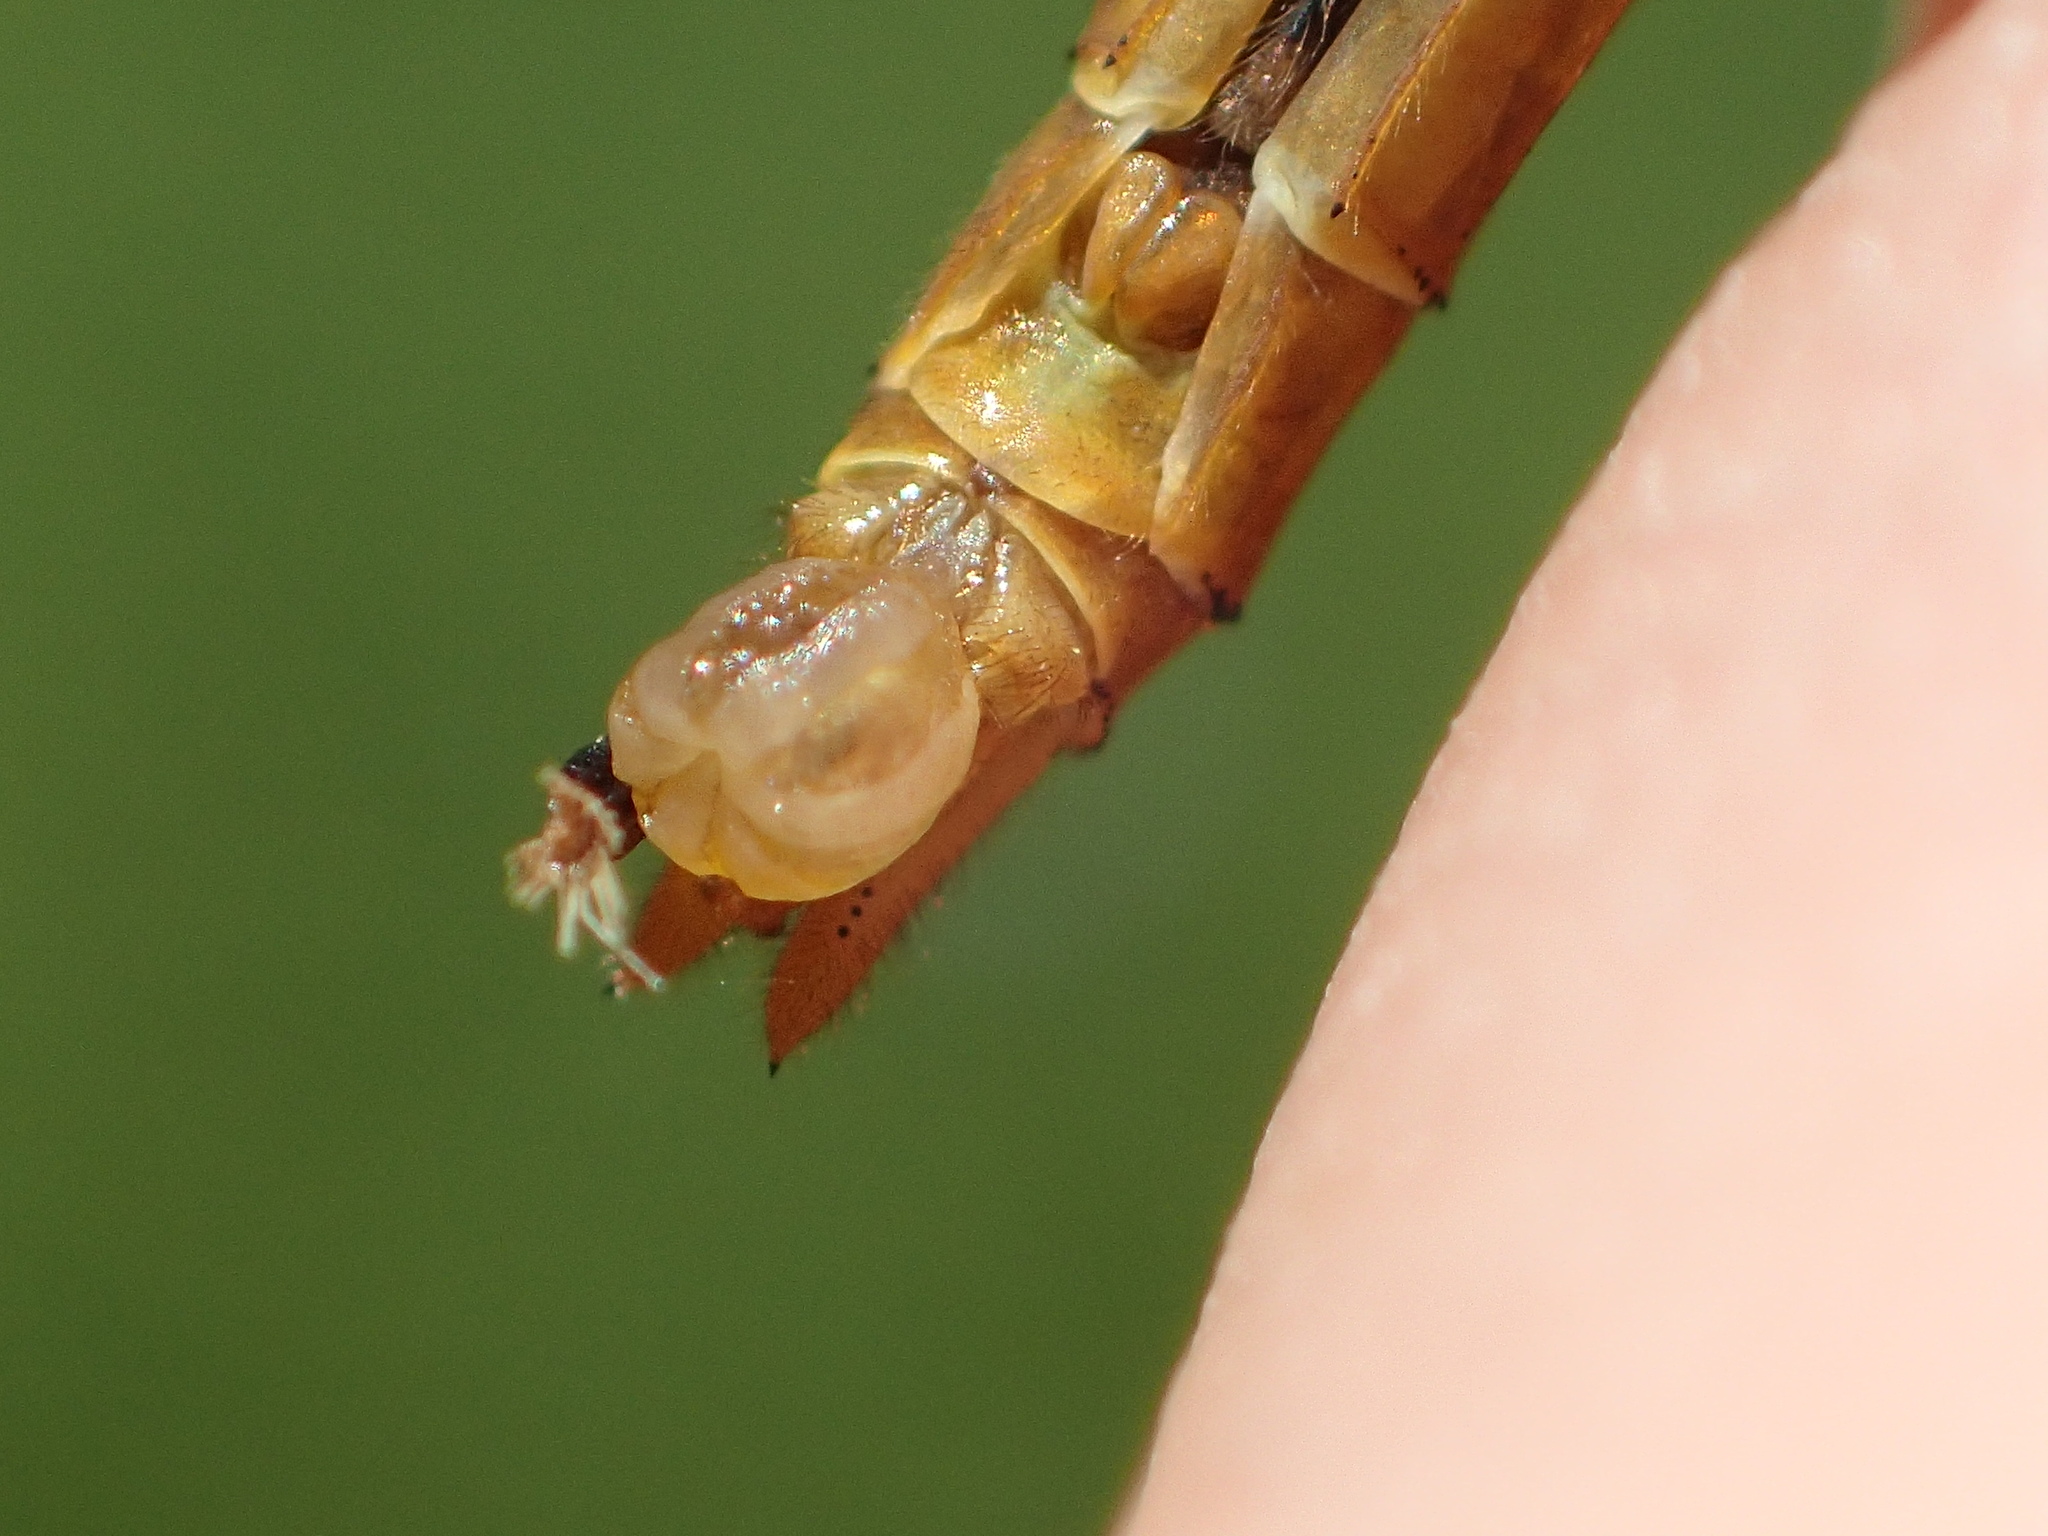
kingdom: Animalia
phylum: Arthropoda
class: Insecta
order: Odonata
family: Libellulidae
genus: Sympetrum
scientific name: Sympetrum costiferum
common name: Saffron-winged meadowhawk
